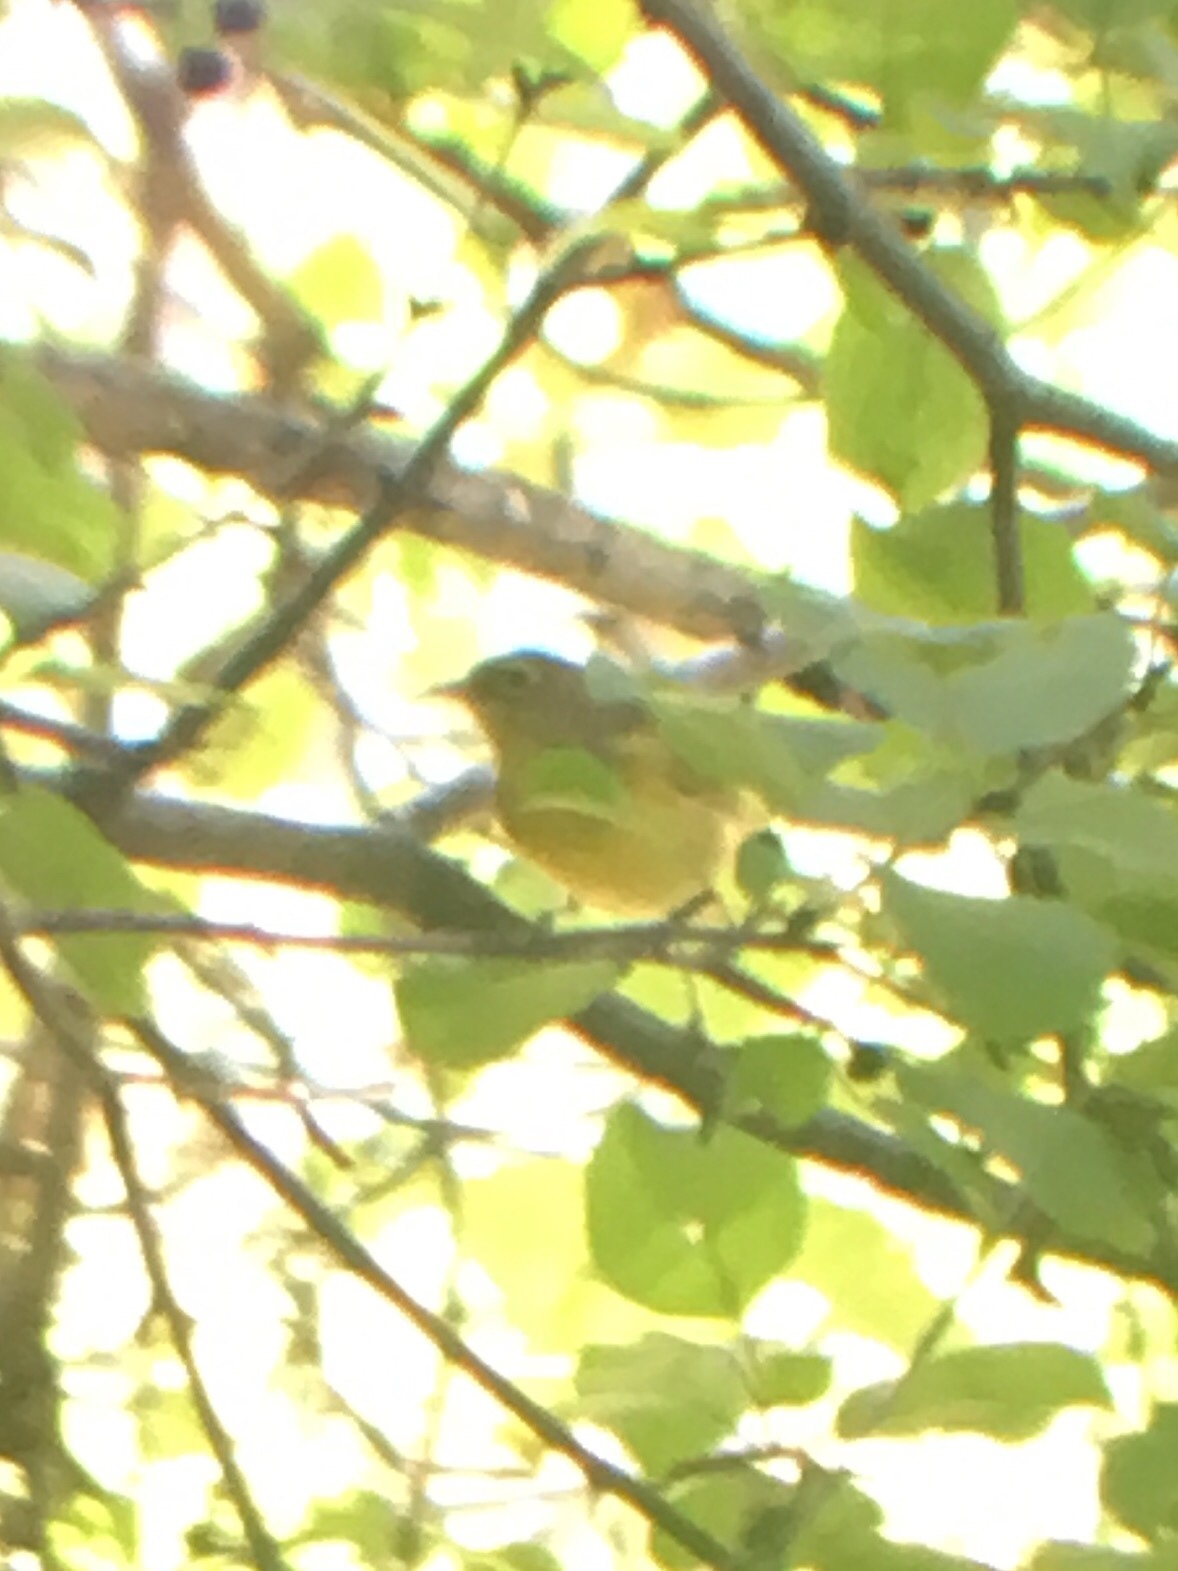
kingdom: Animalia
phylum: Chordata
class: Aves
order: Passeriformes
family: Parulidae
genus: Leiothlypis
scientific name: Leiothlypis ruficapilla
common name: Nashville warbler
